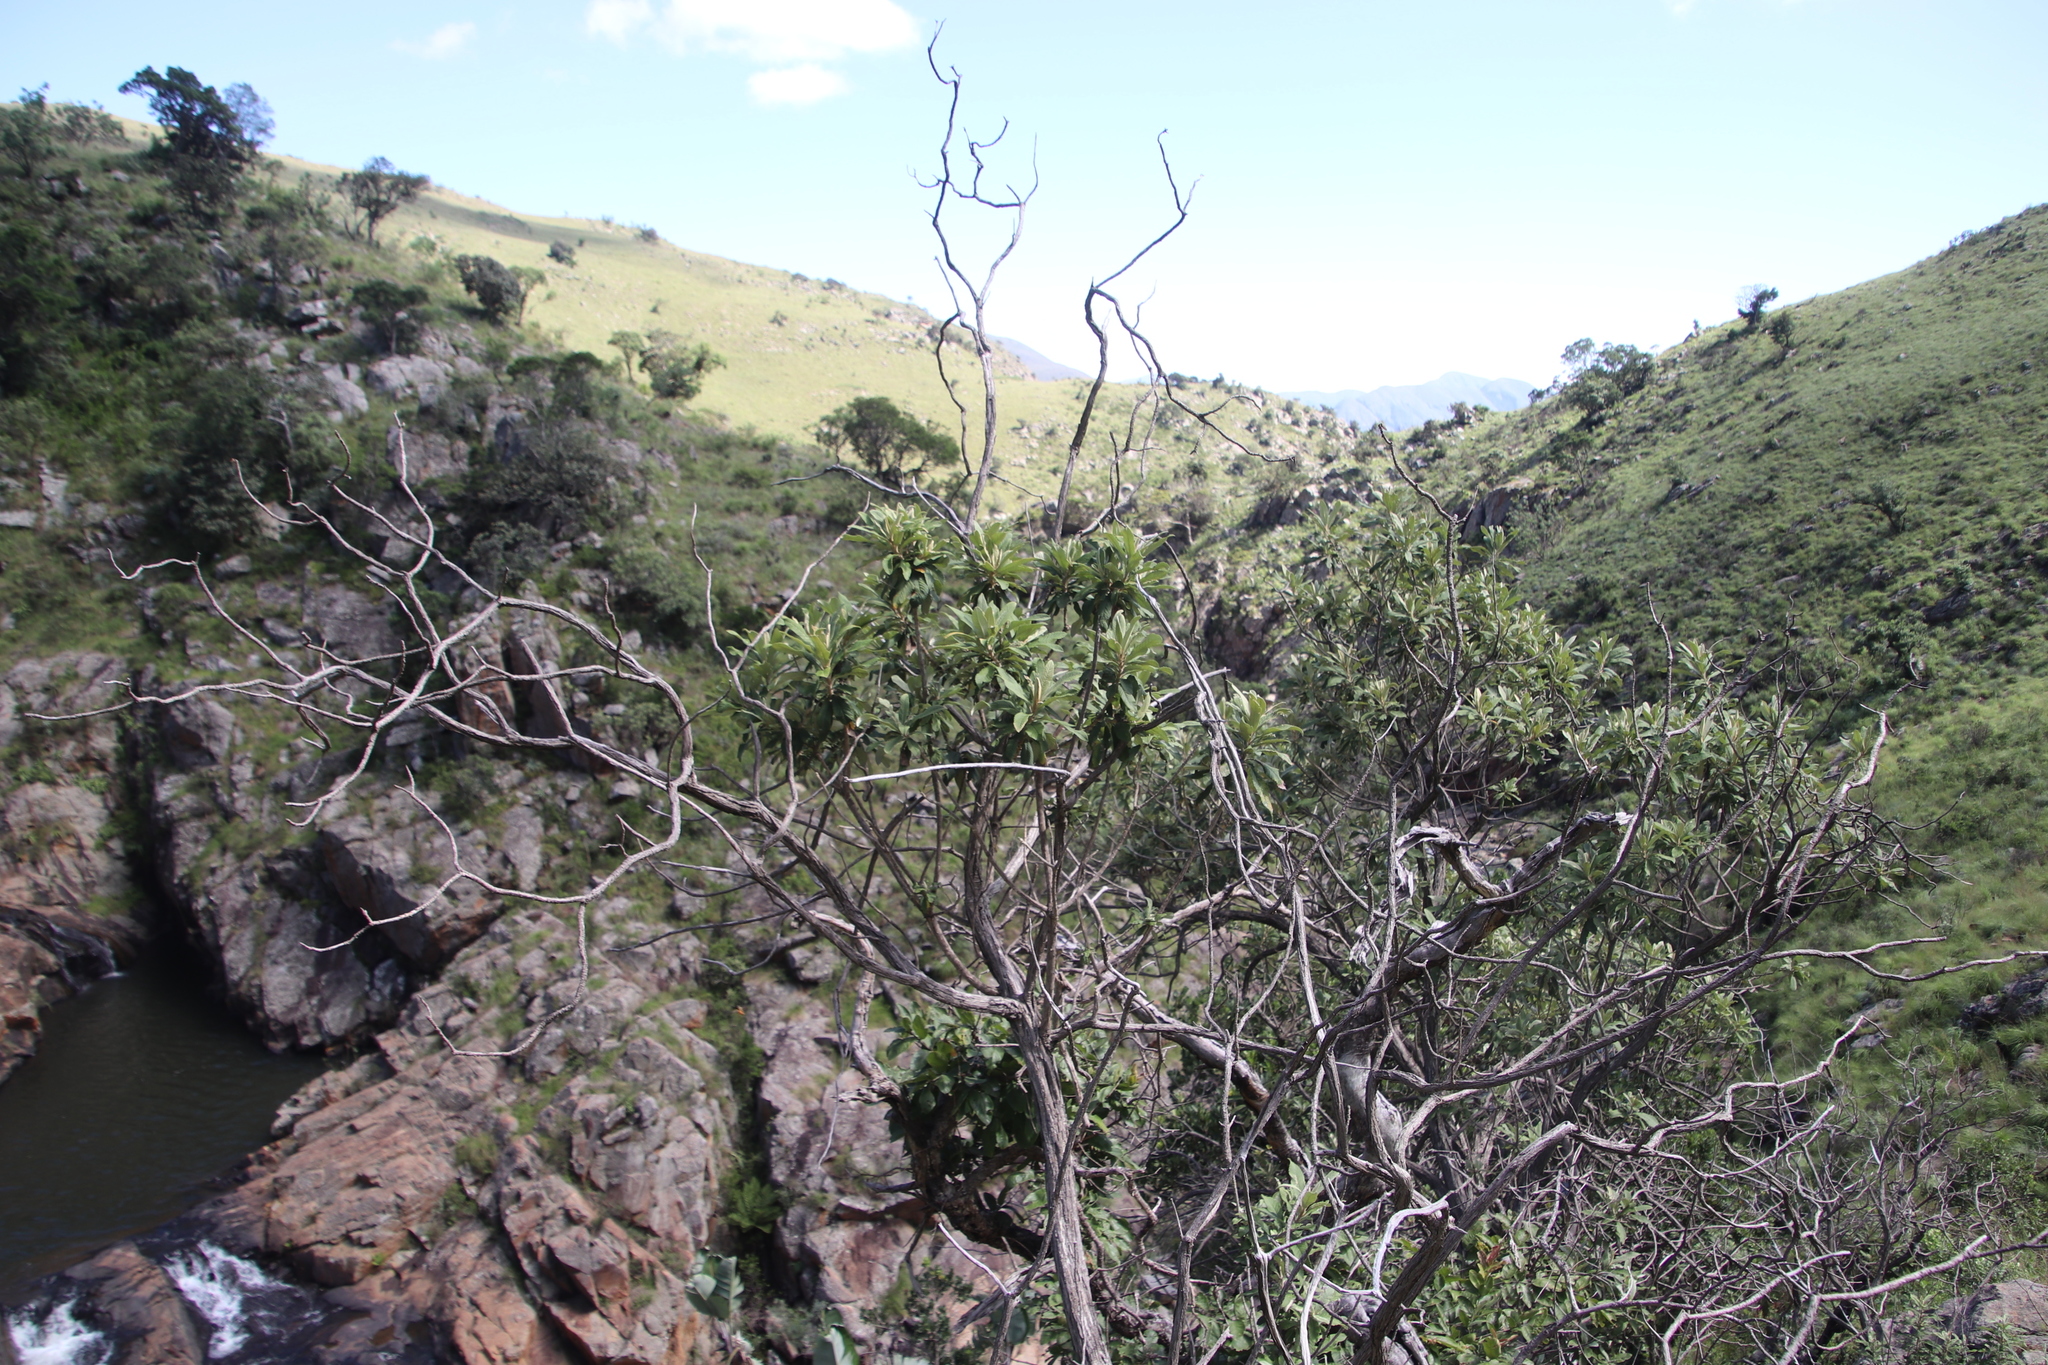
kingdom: Plantae
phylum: Tracheophyta
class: Magnoliopsida
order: Asterales
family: Asteraceae
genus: Tarchonanthus
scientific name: Tarchonanthus trilobus
